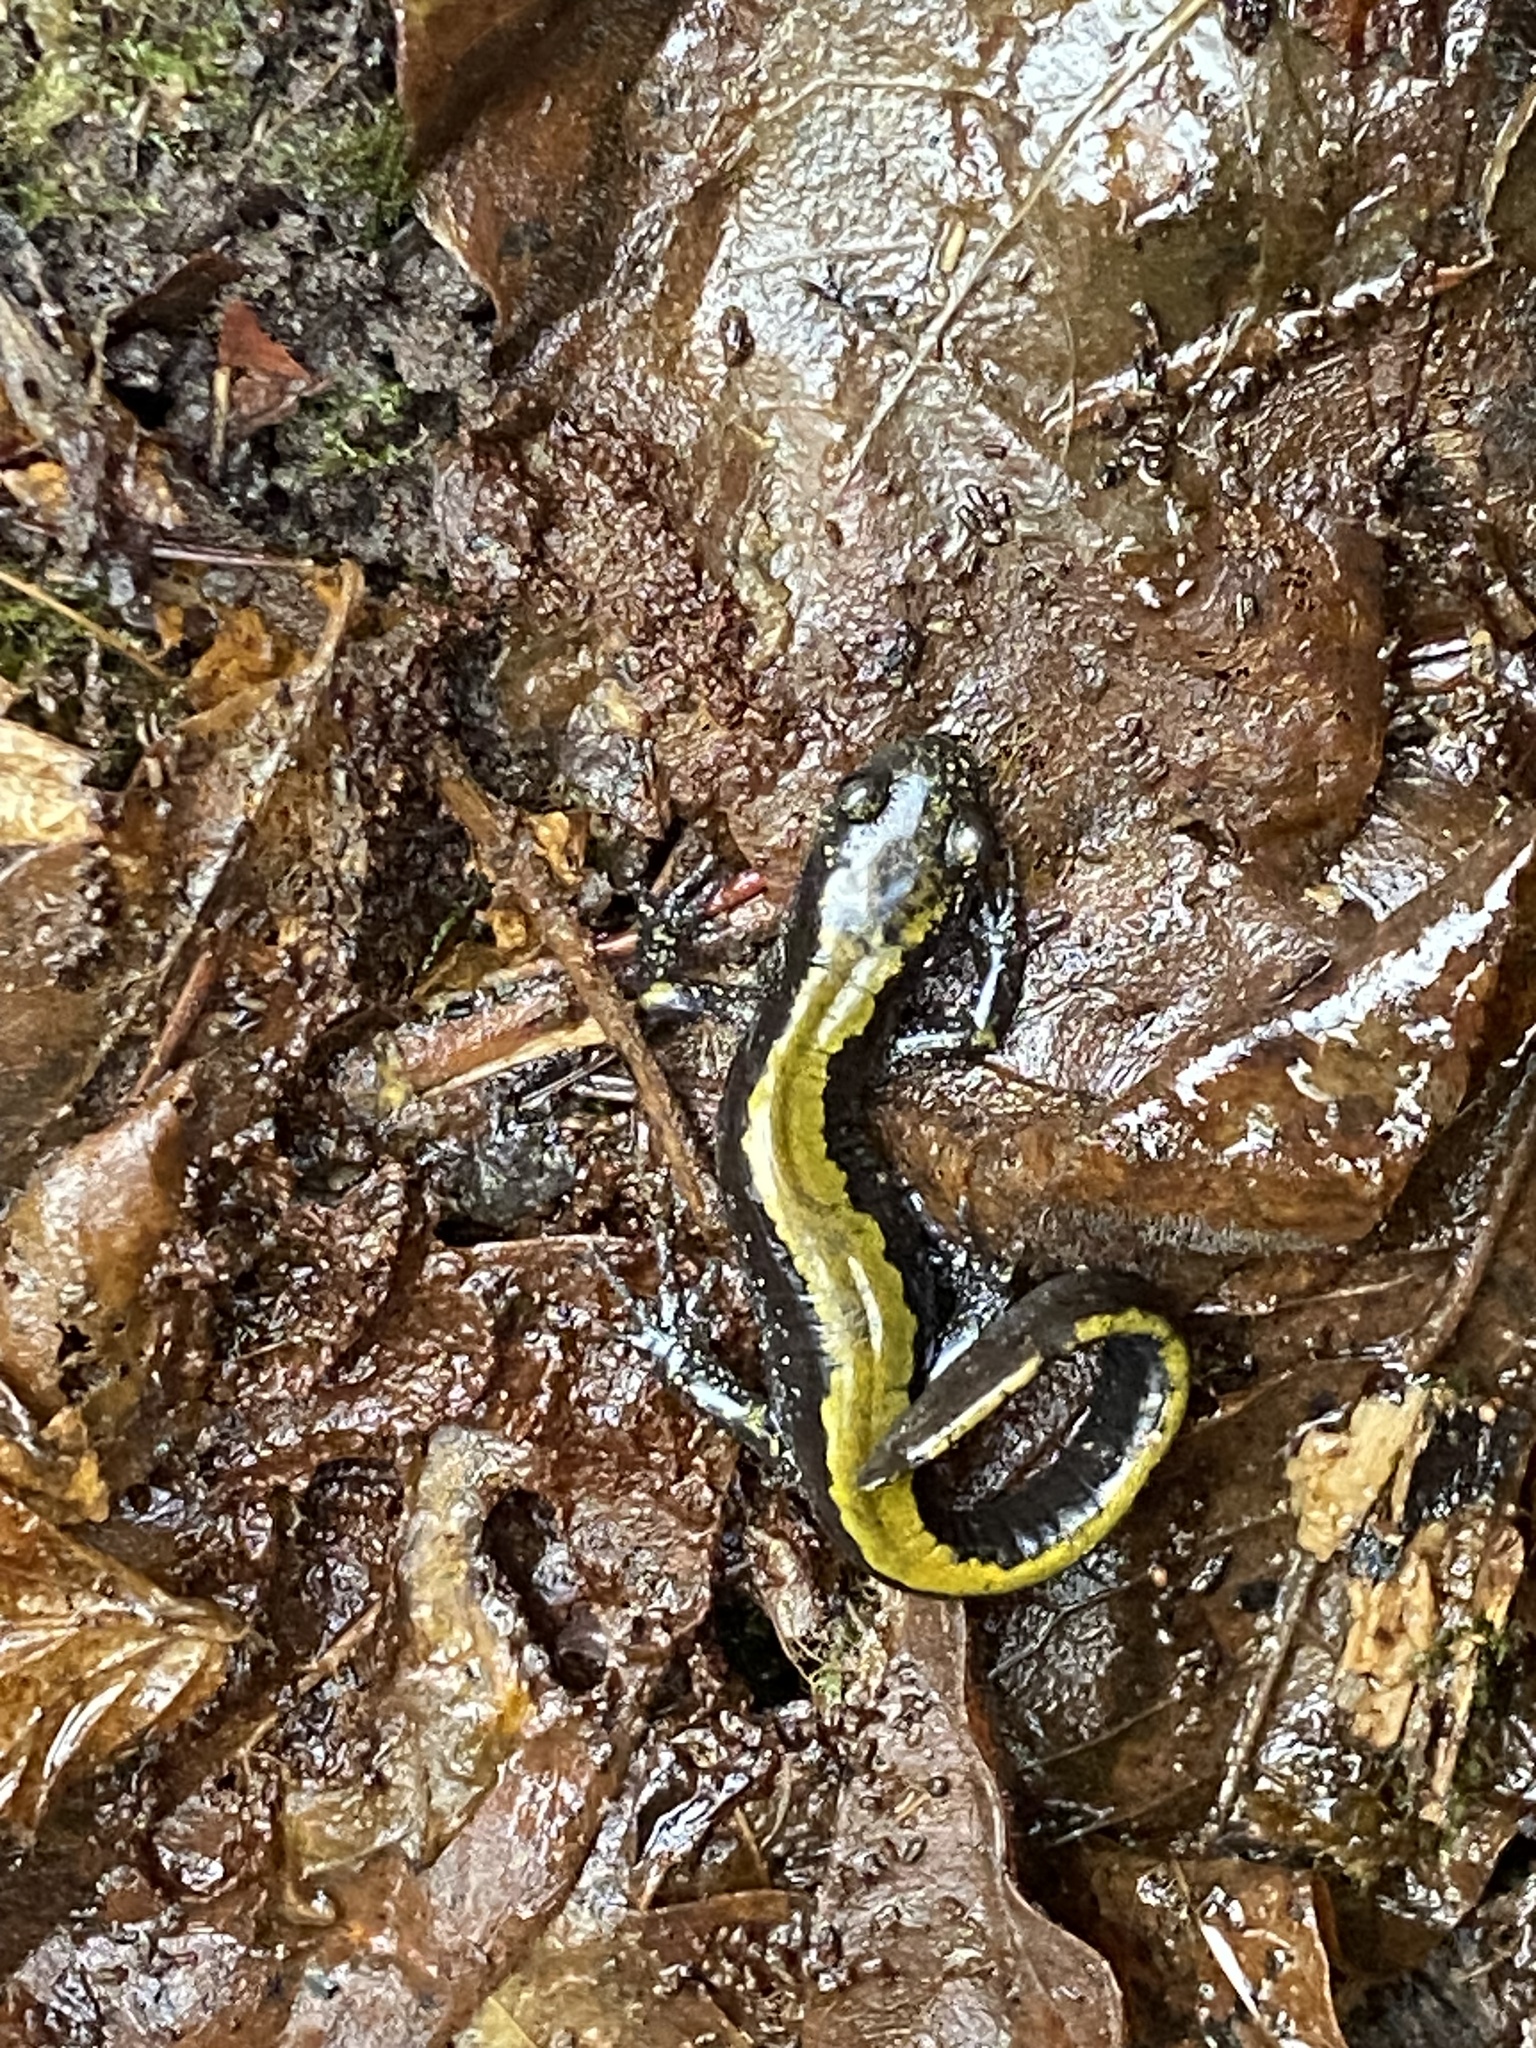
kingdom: Animalia
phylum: Chordata
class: Amphibia
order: Caudata
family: Ambystomatidae
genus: Ambystoma
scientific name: Ambystoma macrodactylum
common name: Long-toed salamander
